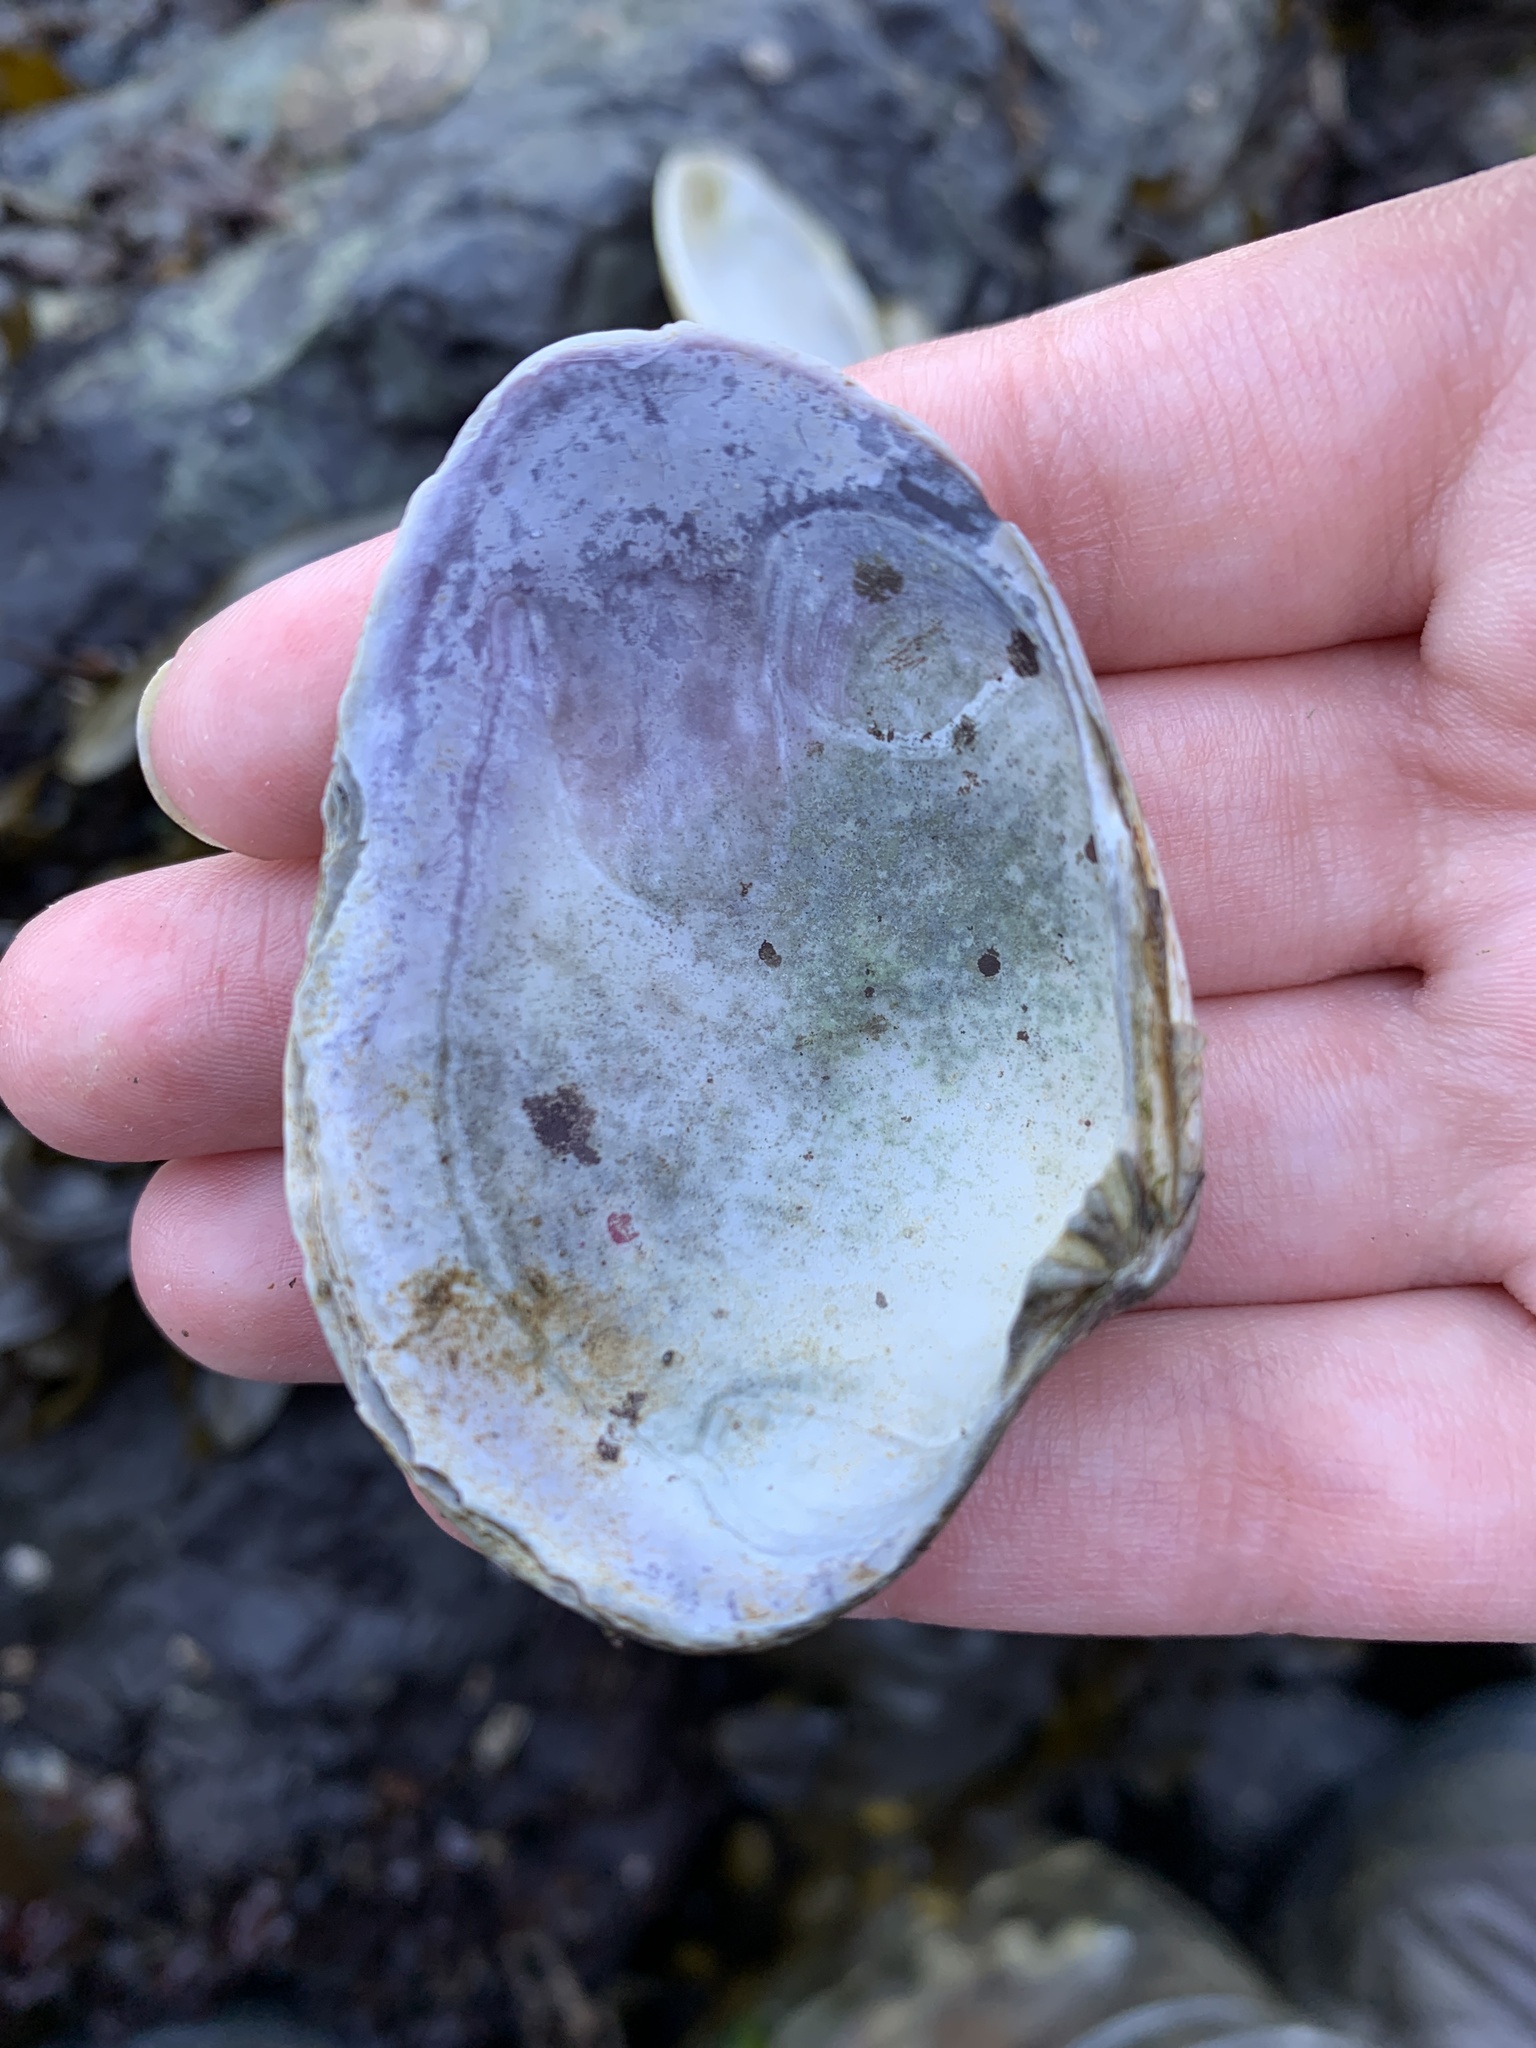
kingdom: Animalia
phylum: Mollusca
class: Bivalvia
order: Venerida
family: Veneridae
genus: Ruditapes
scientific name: Ruditapes philippinarum
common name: Manila clam
